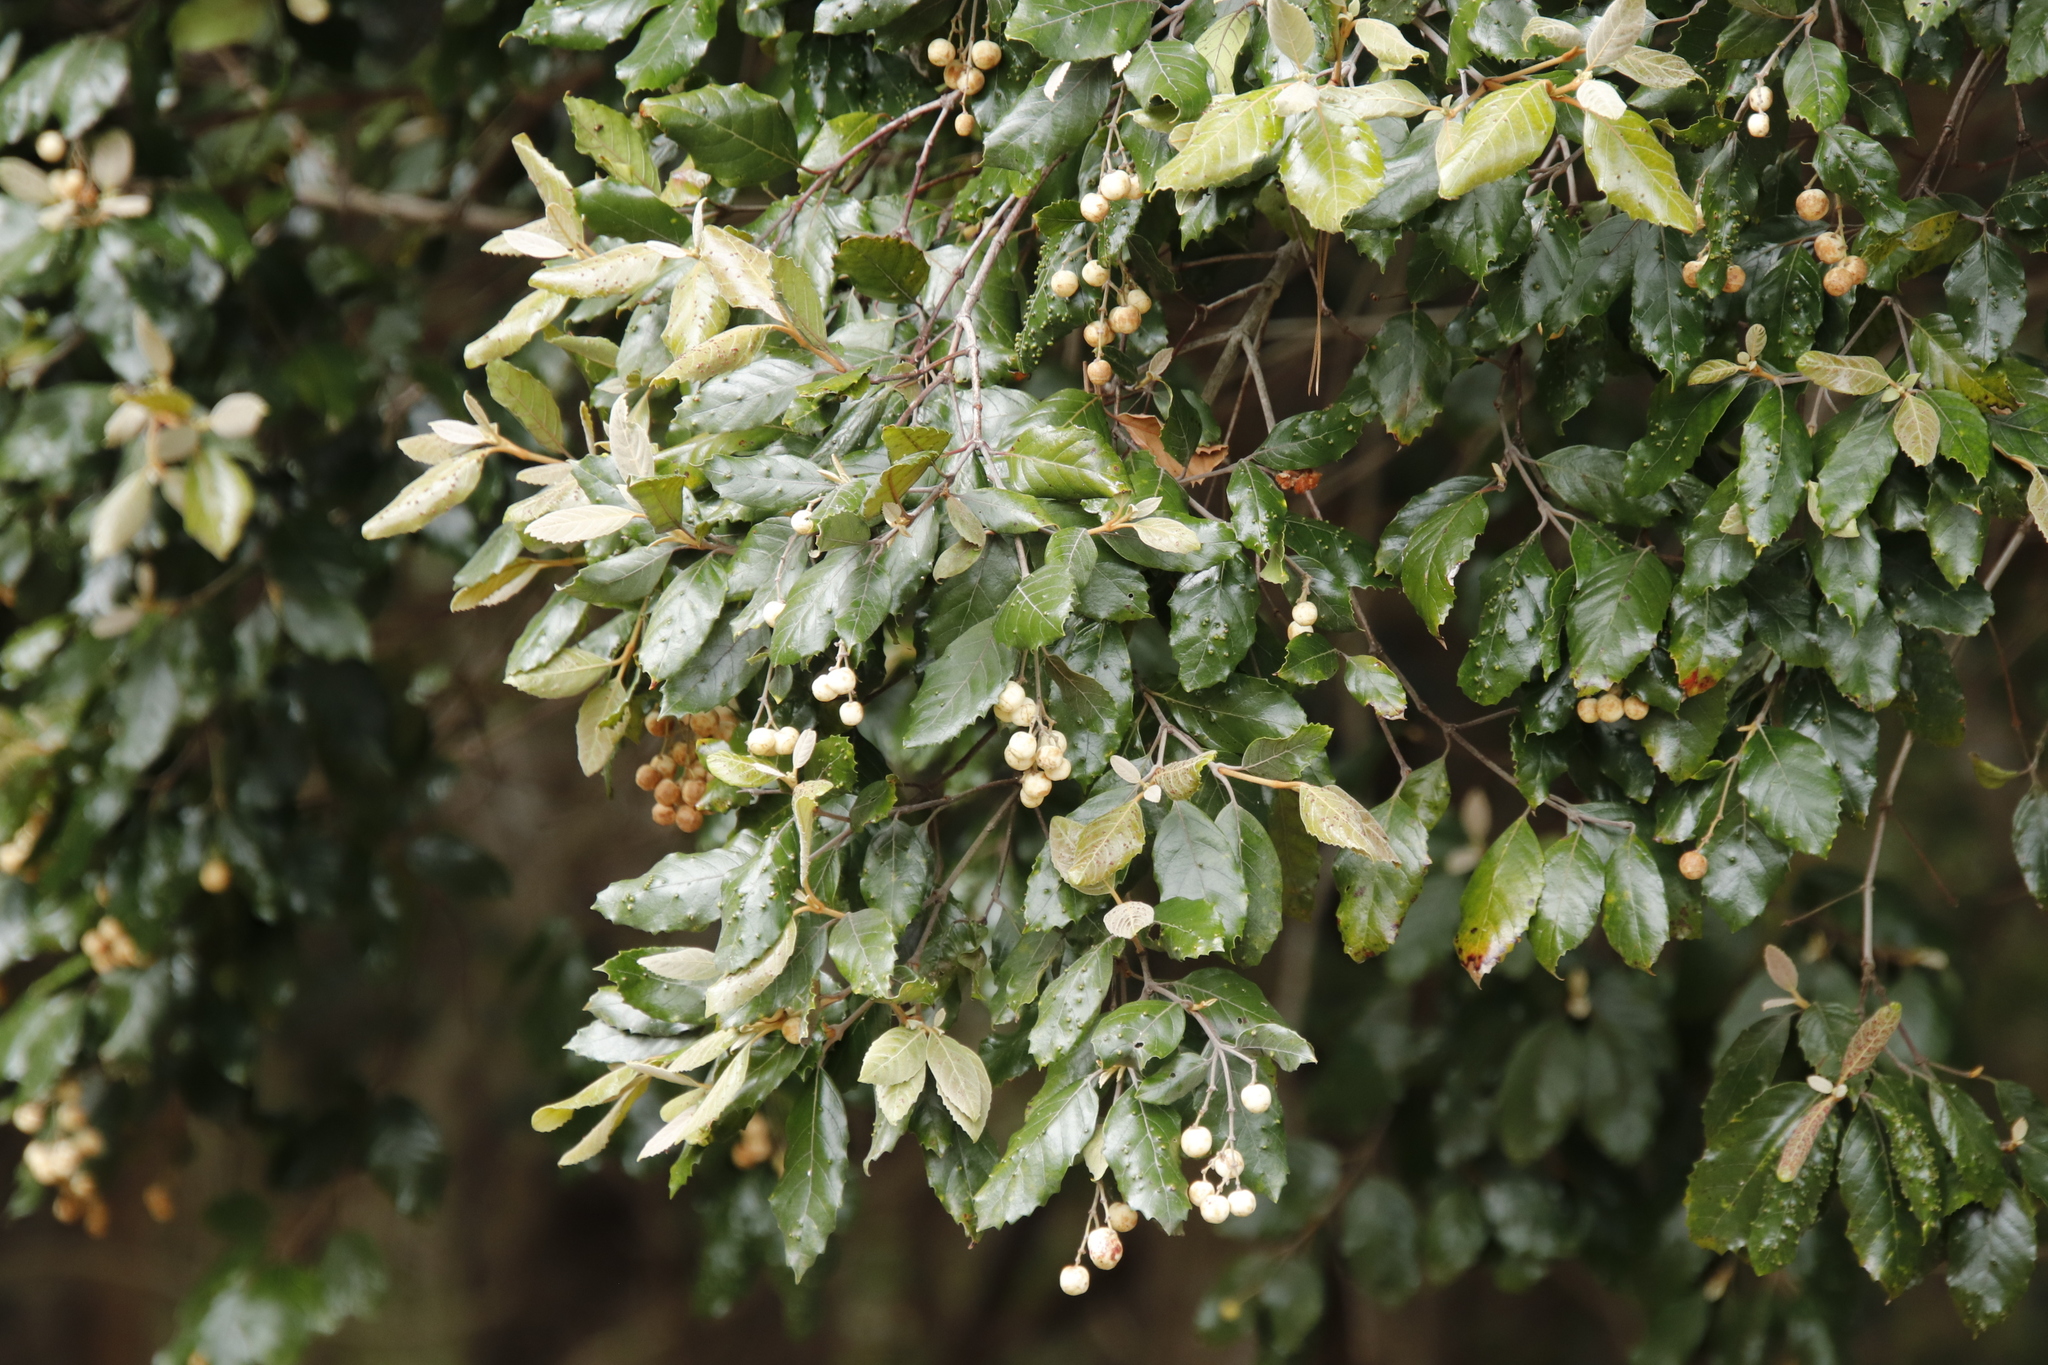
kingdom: Plantae
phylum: Tracheophyta
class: Magnoliopsida
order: Cornales
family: Curtisiaceae
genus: Curtisia
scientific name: Curtisia dentata
